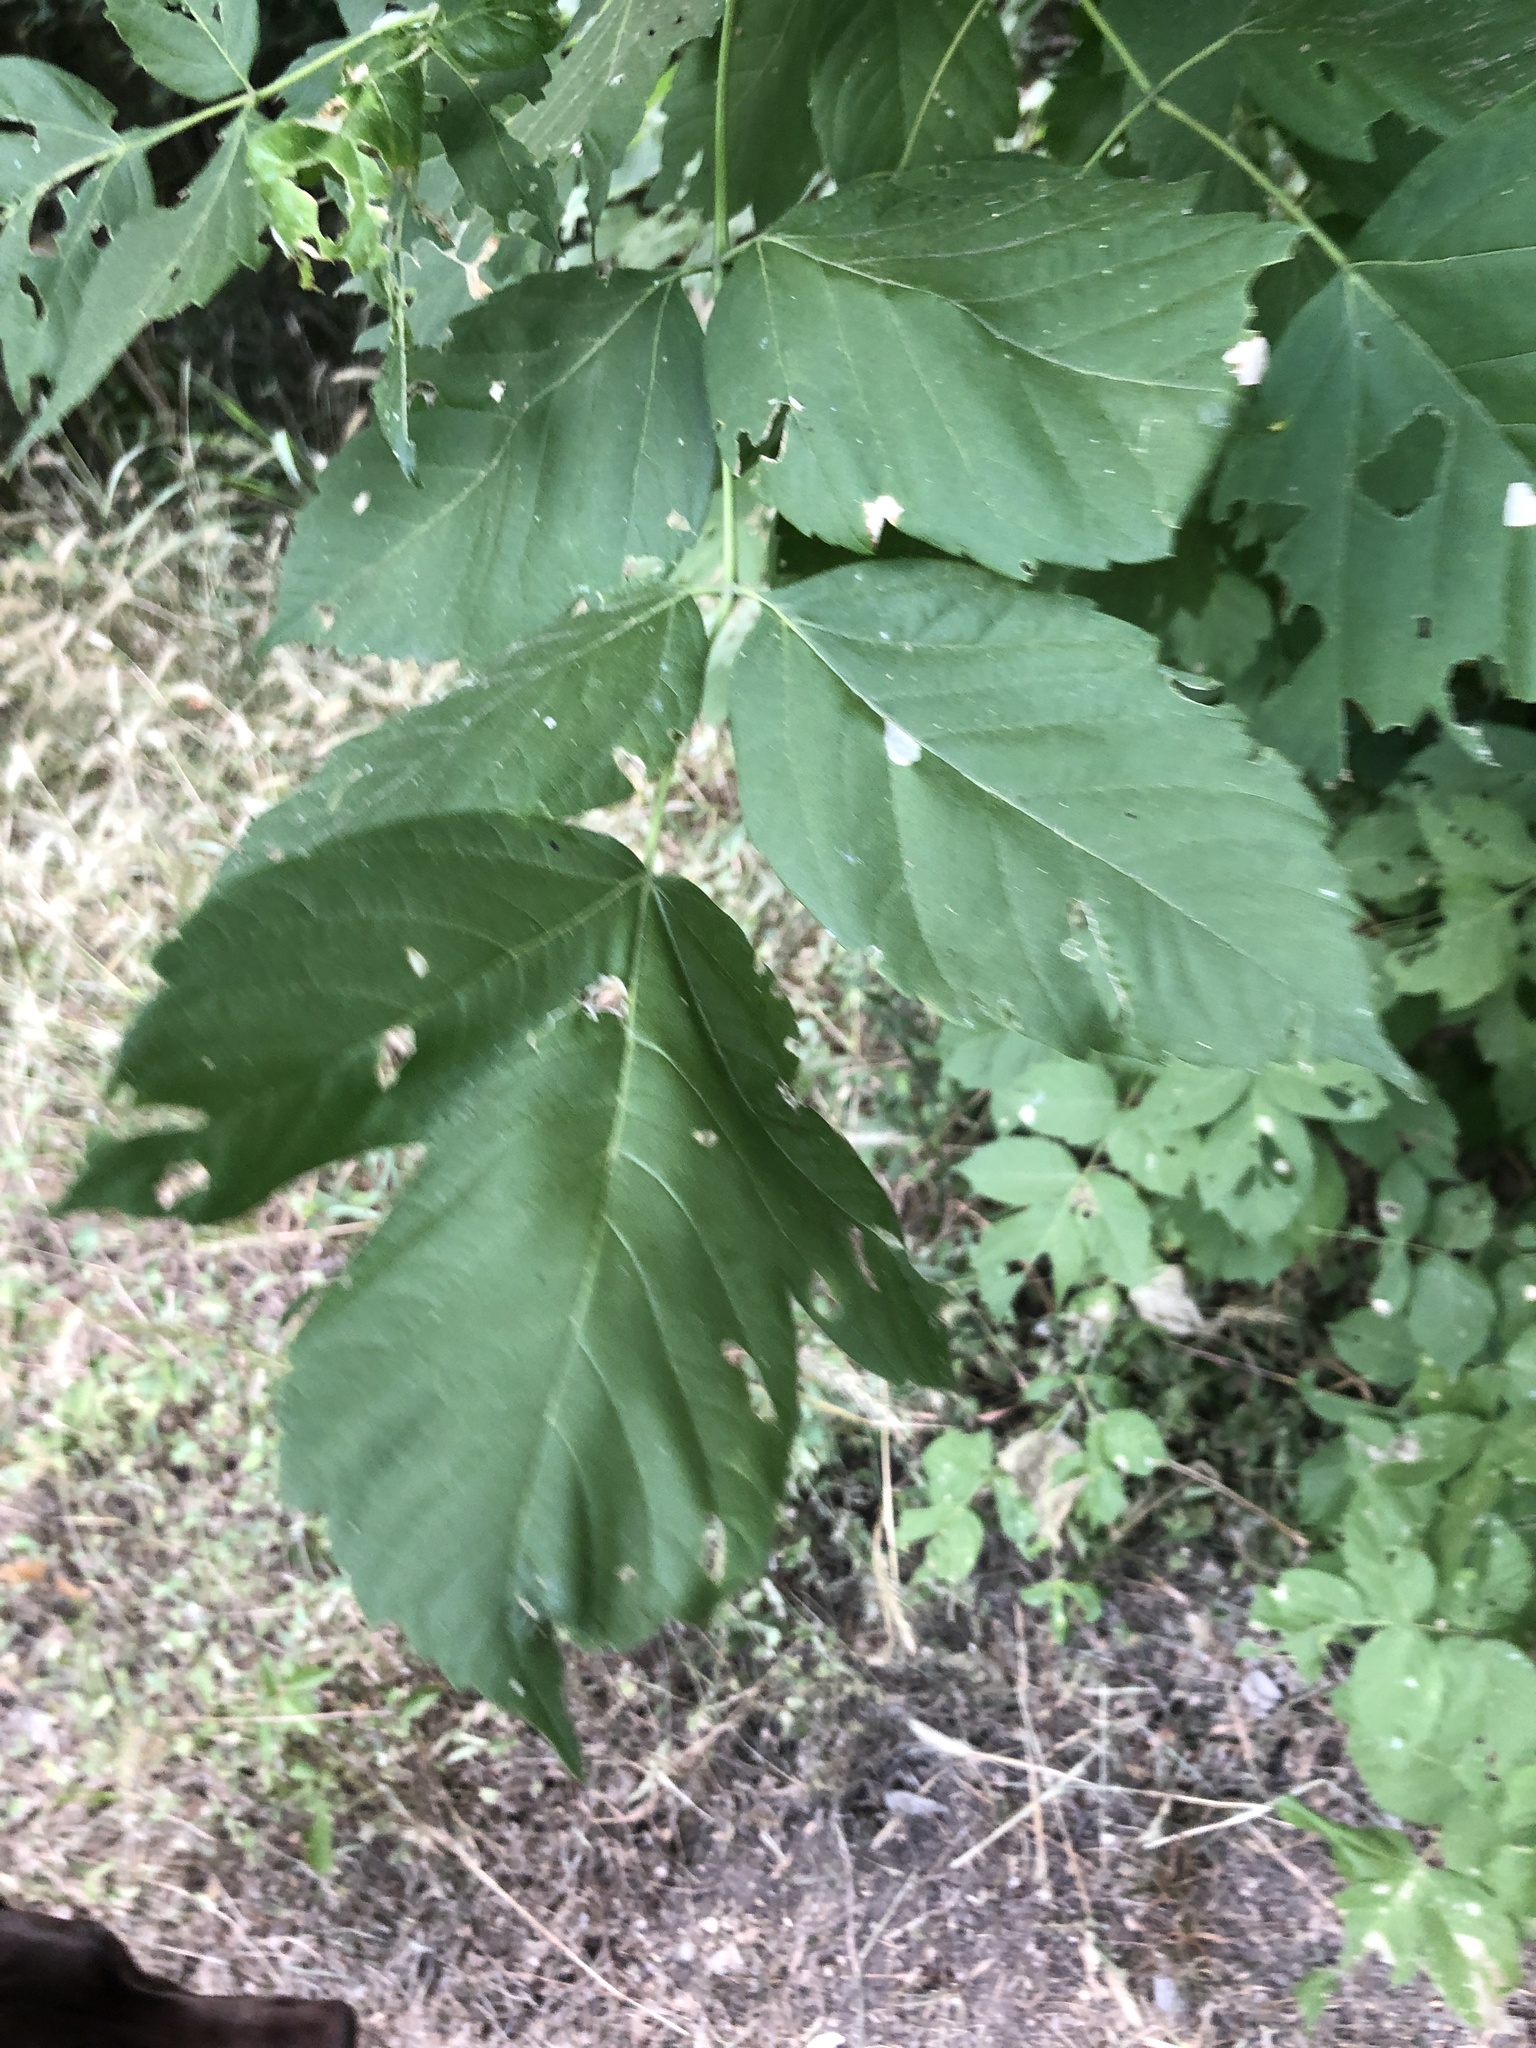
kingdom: Plantae
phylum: Tracheophyta
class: Magnoliopsida
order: Sapindales
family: Sapindaceae
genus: Acer
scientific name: Acer negundo
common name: Ashleaf maple
